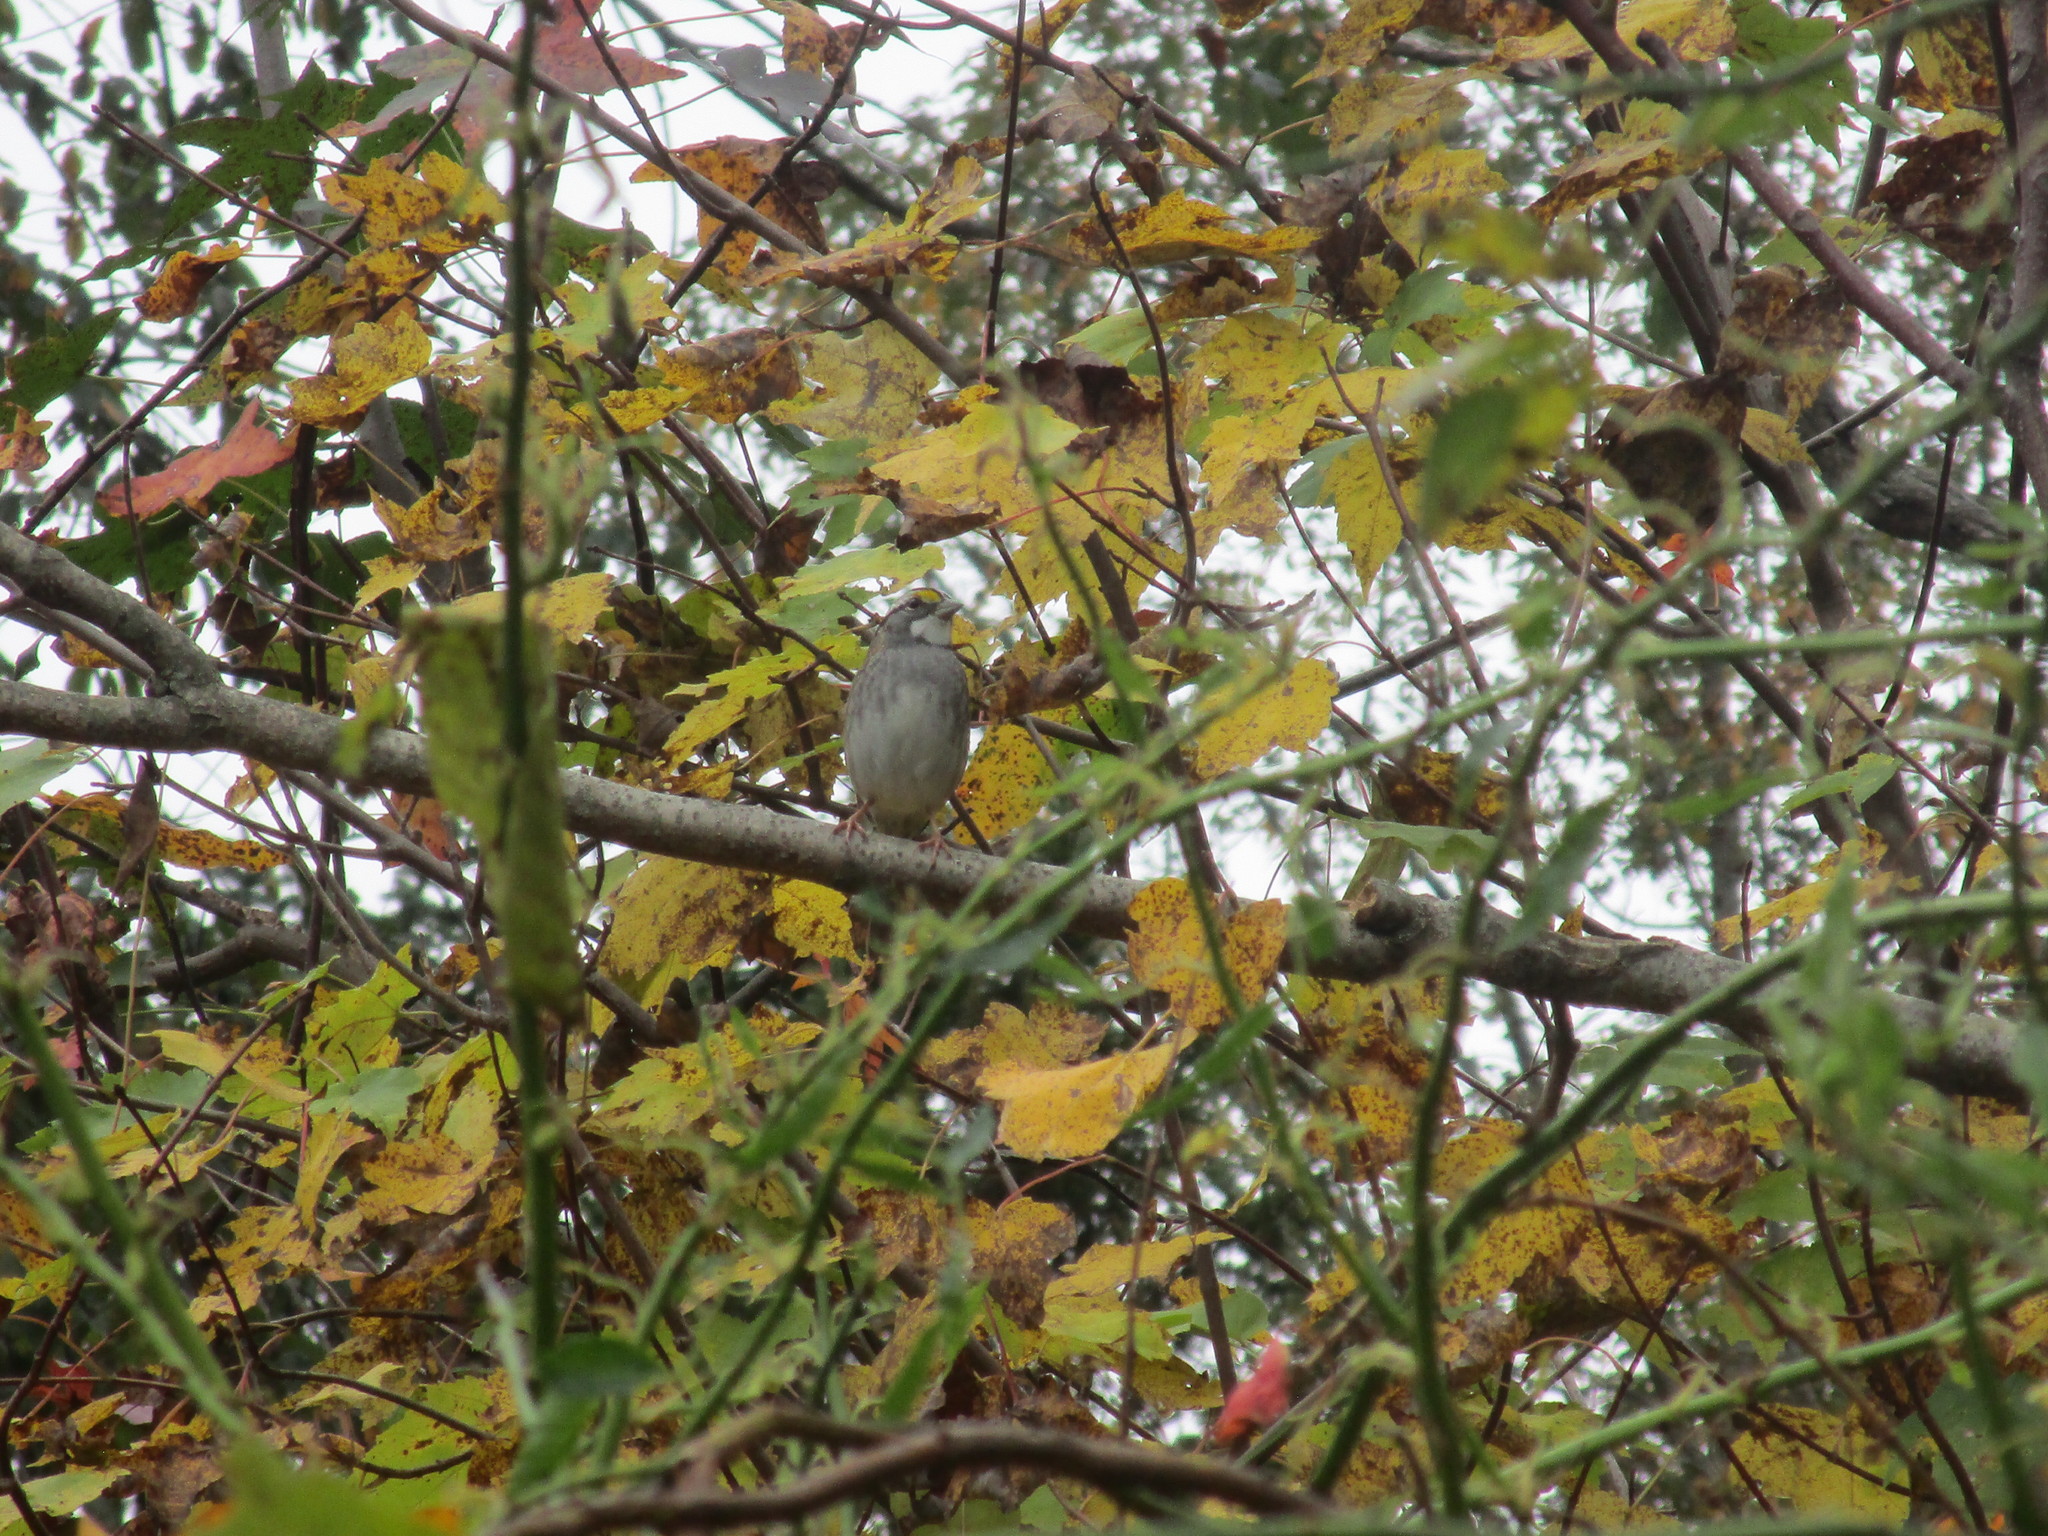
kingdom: Animalia
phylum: Chordata
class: Aves
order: Passeriformes
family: Passerellidae
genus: Zonotrichia
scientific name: Zonotrichia albicollis
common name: White-throated sparrow
